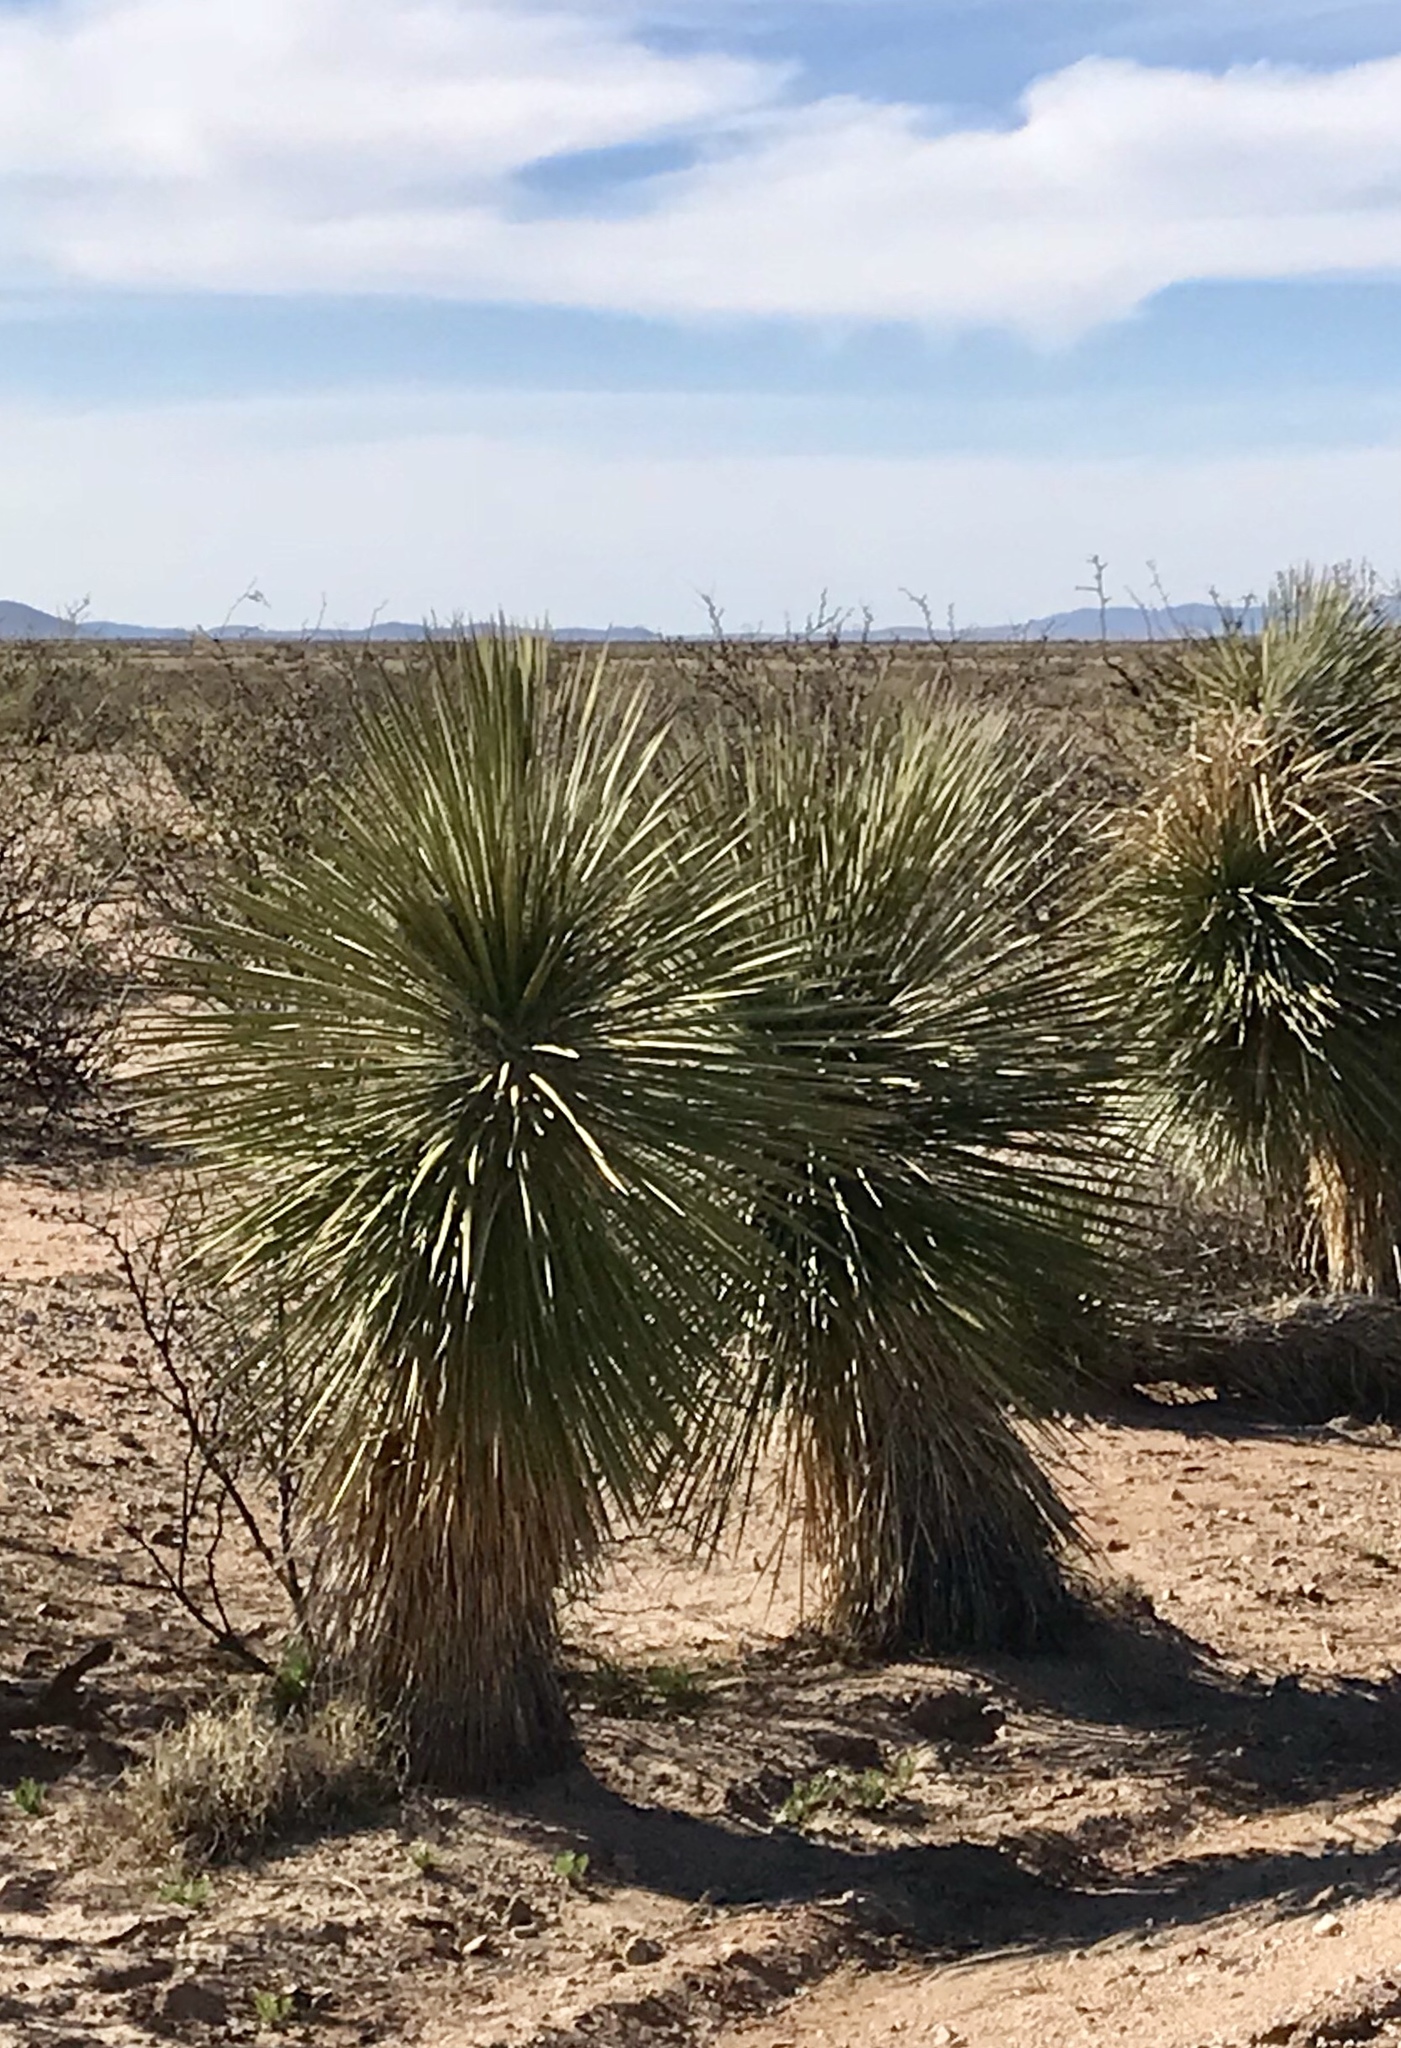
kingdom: Plantae
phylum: Tracheophyta
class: Liliopsida
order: Asparagales
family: Asparagaceae
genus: Yucca
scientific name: Yucca elata
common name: Palmella
